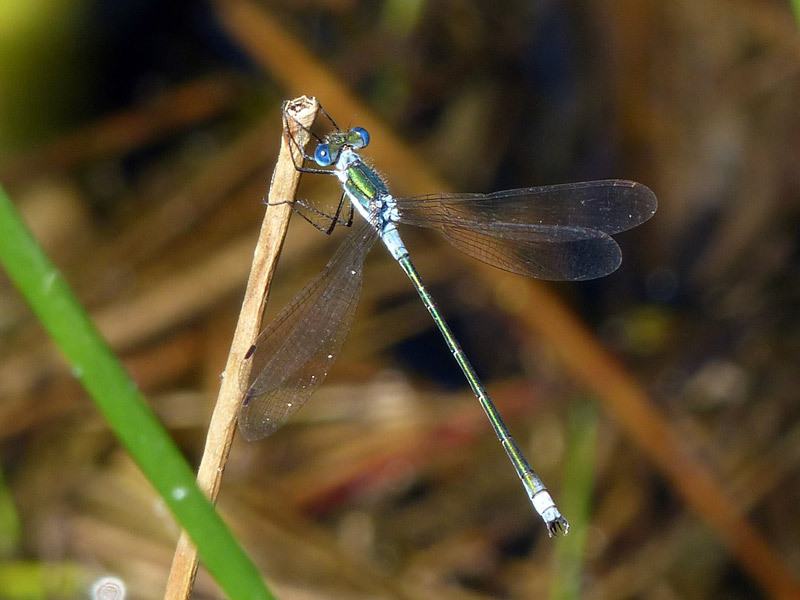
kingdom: Animalia
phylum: Arthropoda
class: Insecta
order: Odonata
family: Lestidae
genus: Lestes
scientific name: Lestes sponsa
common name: Common spreadwing
